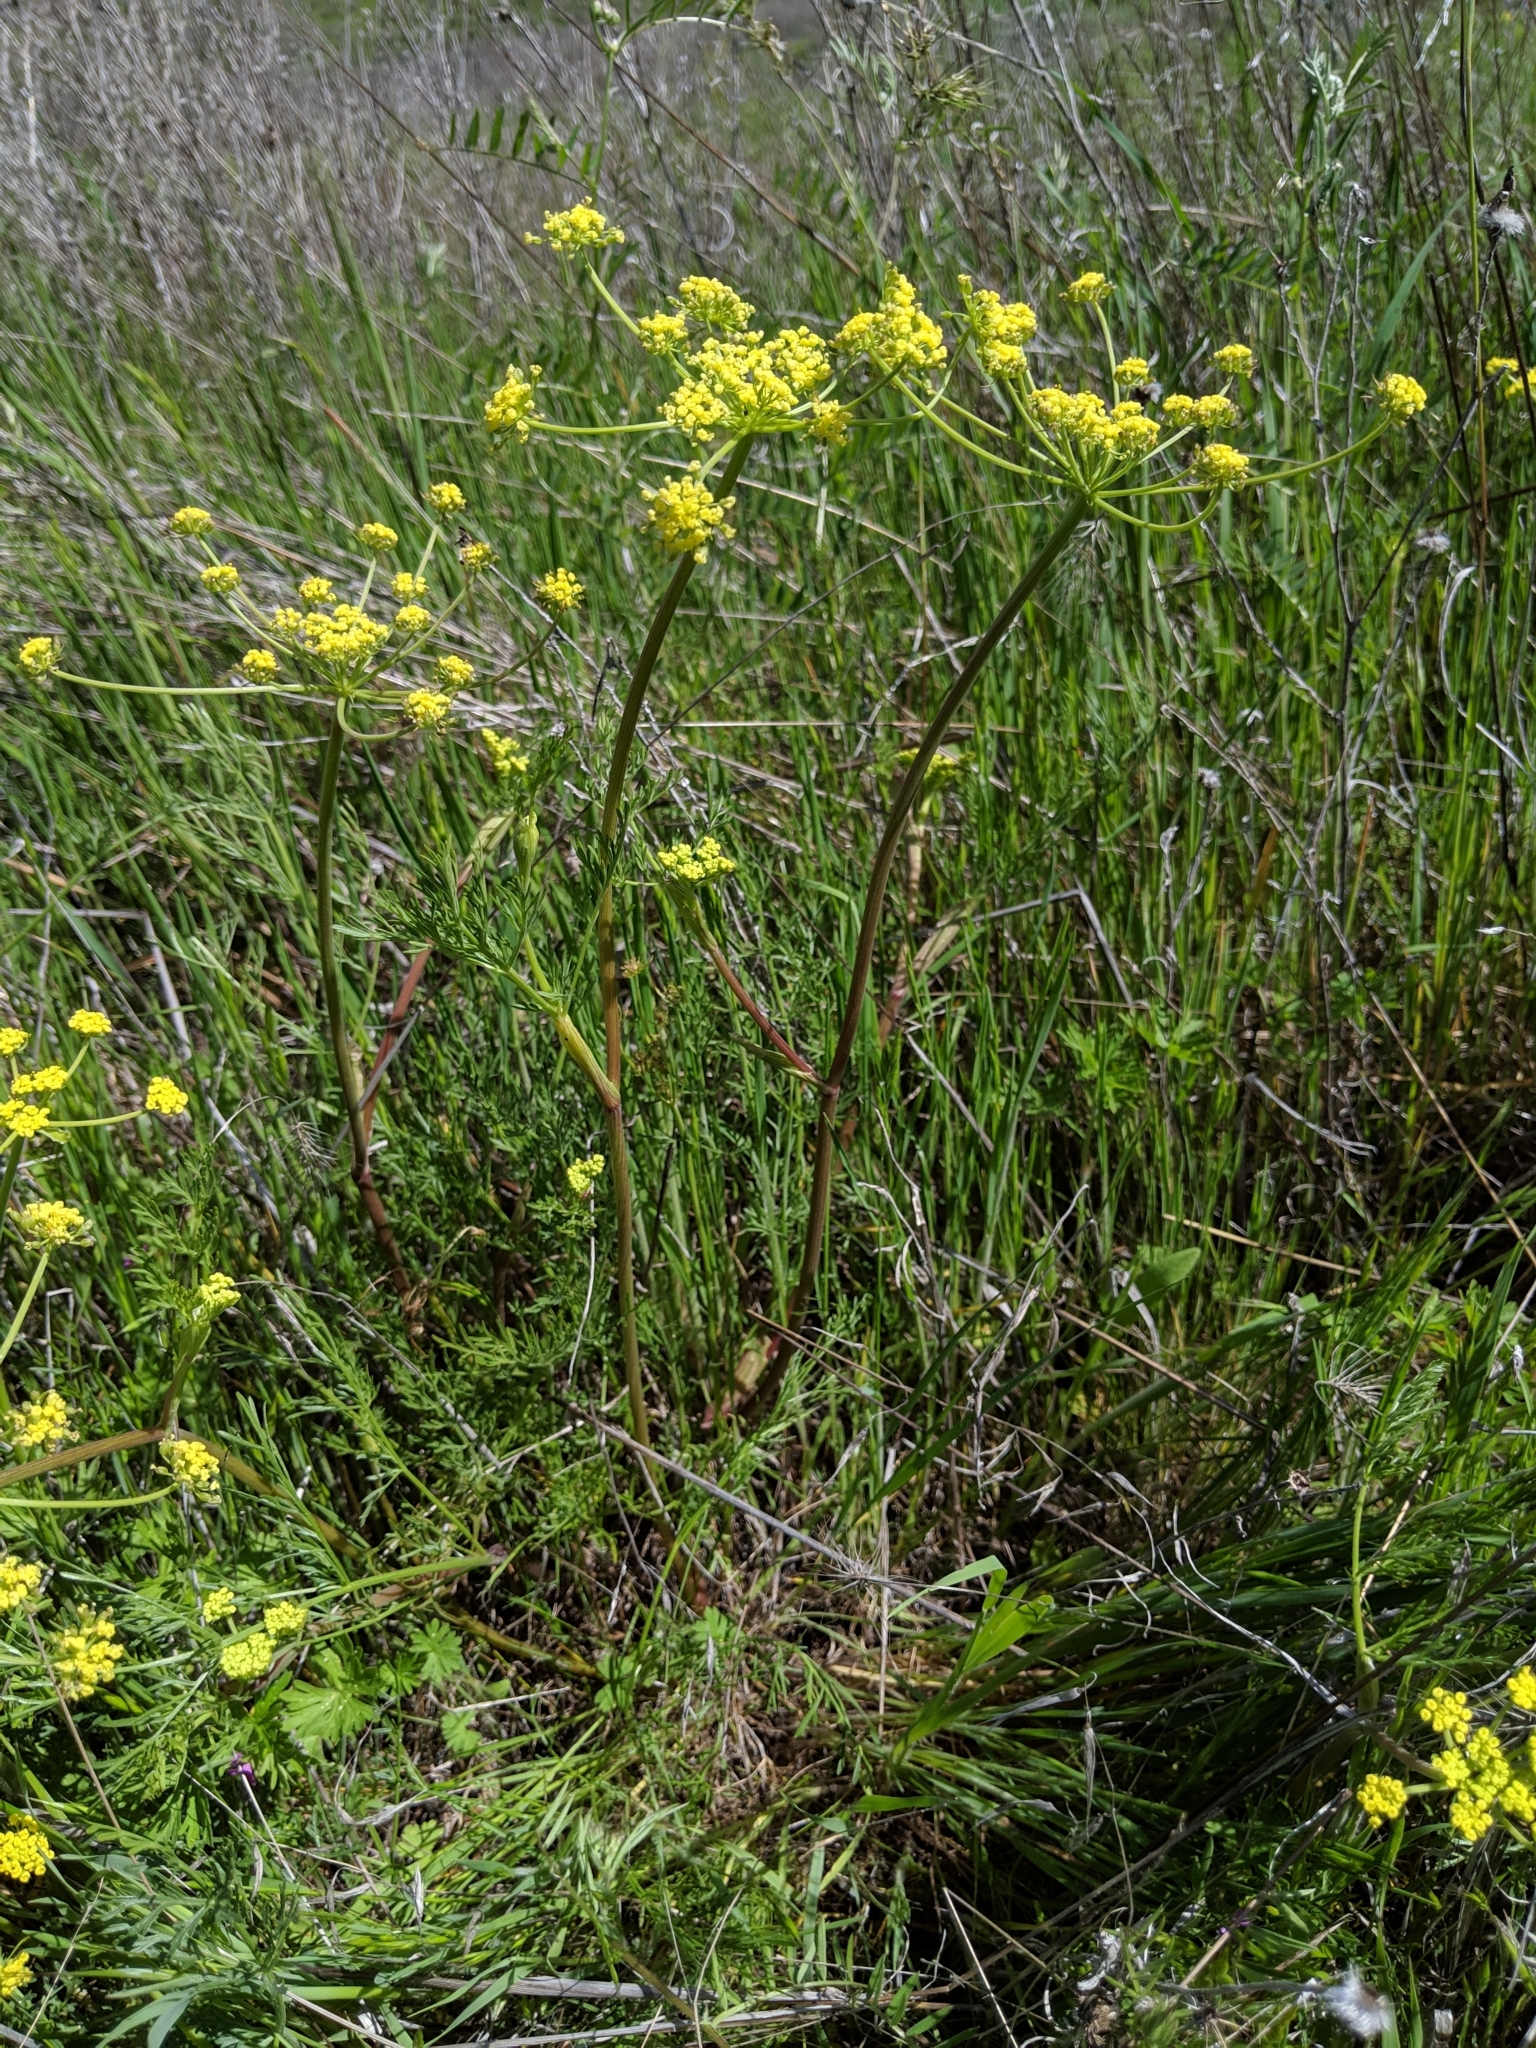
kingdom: Plantae
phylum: Tracheophyta
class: Magnoliopsida
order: Apiales
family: Apiaceae
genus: Lomatium
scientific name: Lomatium utriculatum
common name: Fine-leaf desert-parsley
